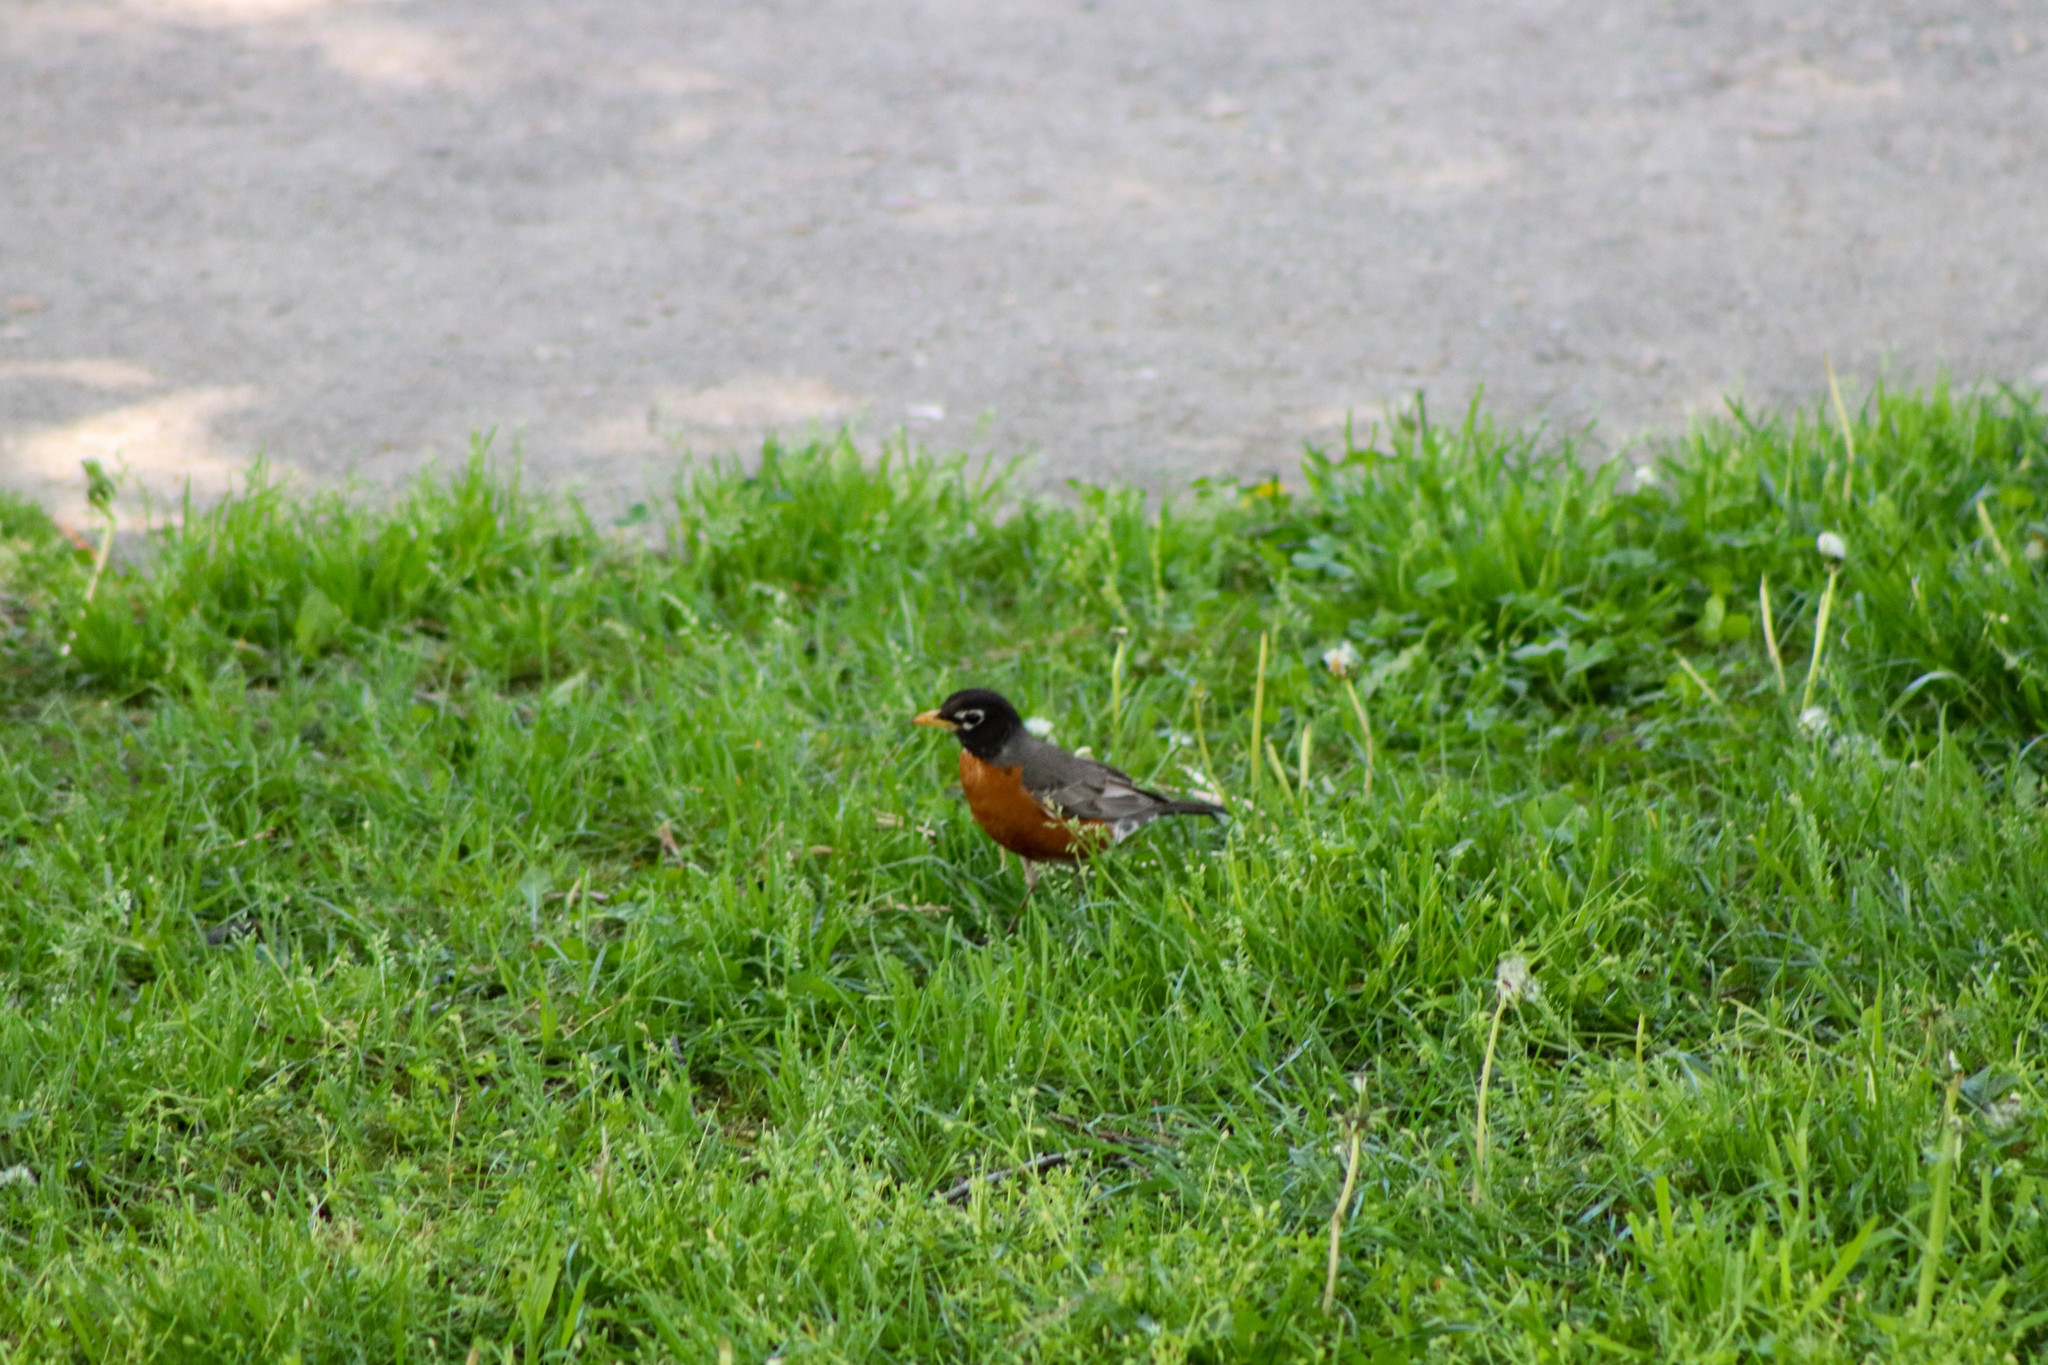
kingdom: Animalia
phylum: Chordata
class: Aves
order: Passeriformes
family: Turdidae
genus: Turdus
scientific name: Turdus migratorius
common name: American robin
